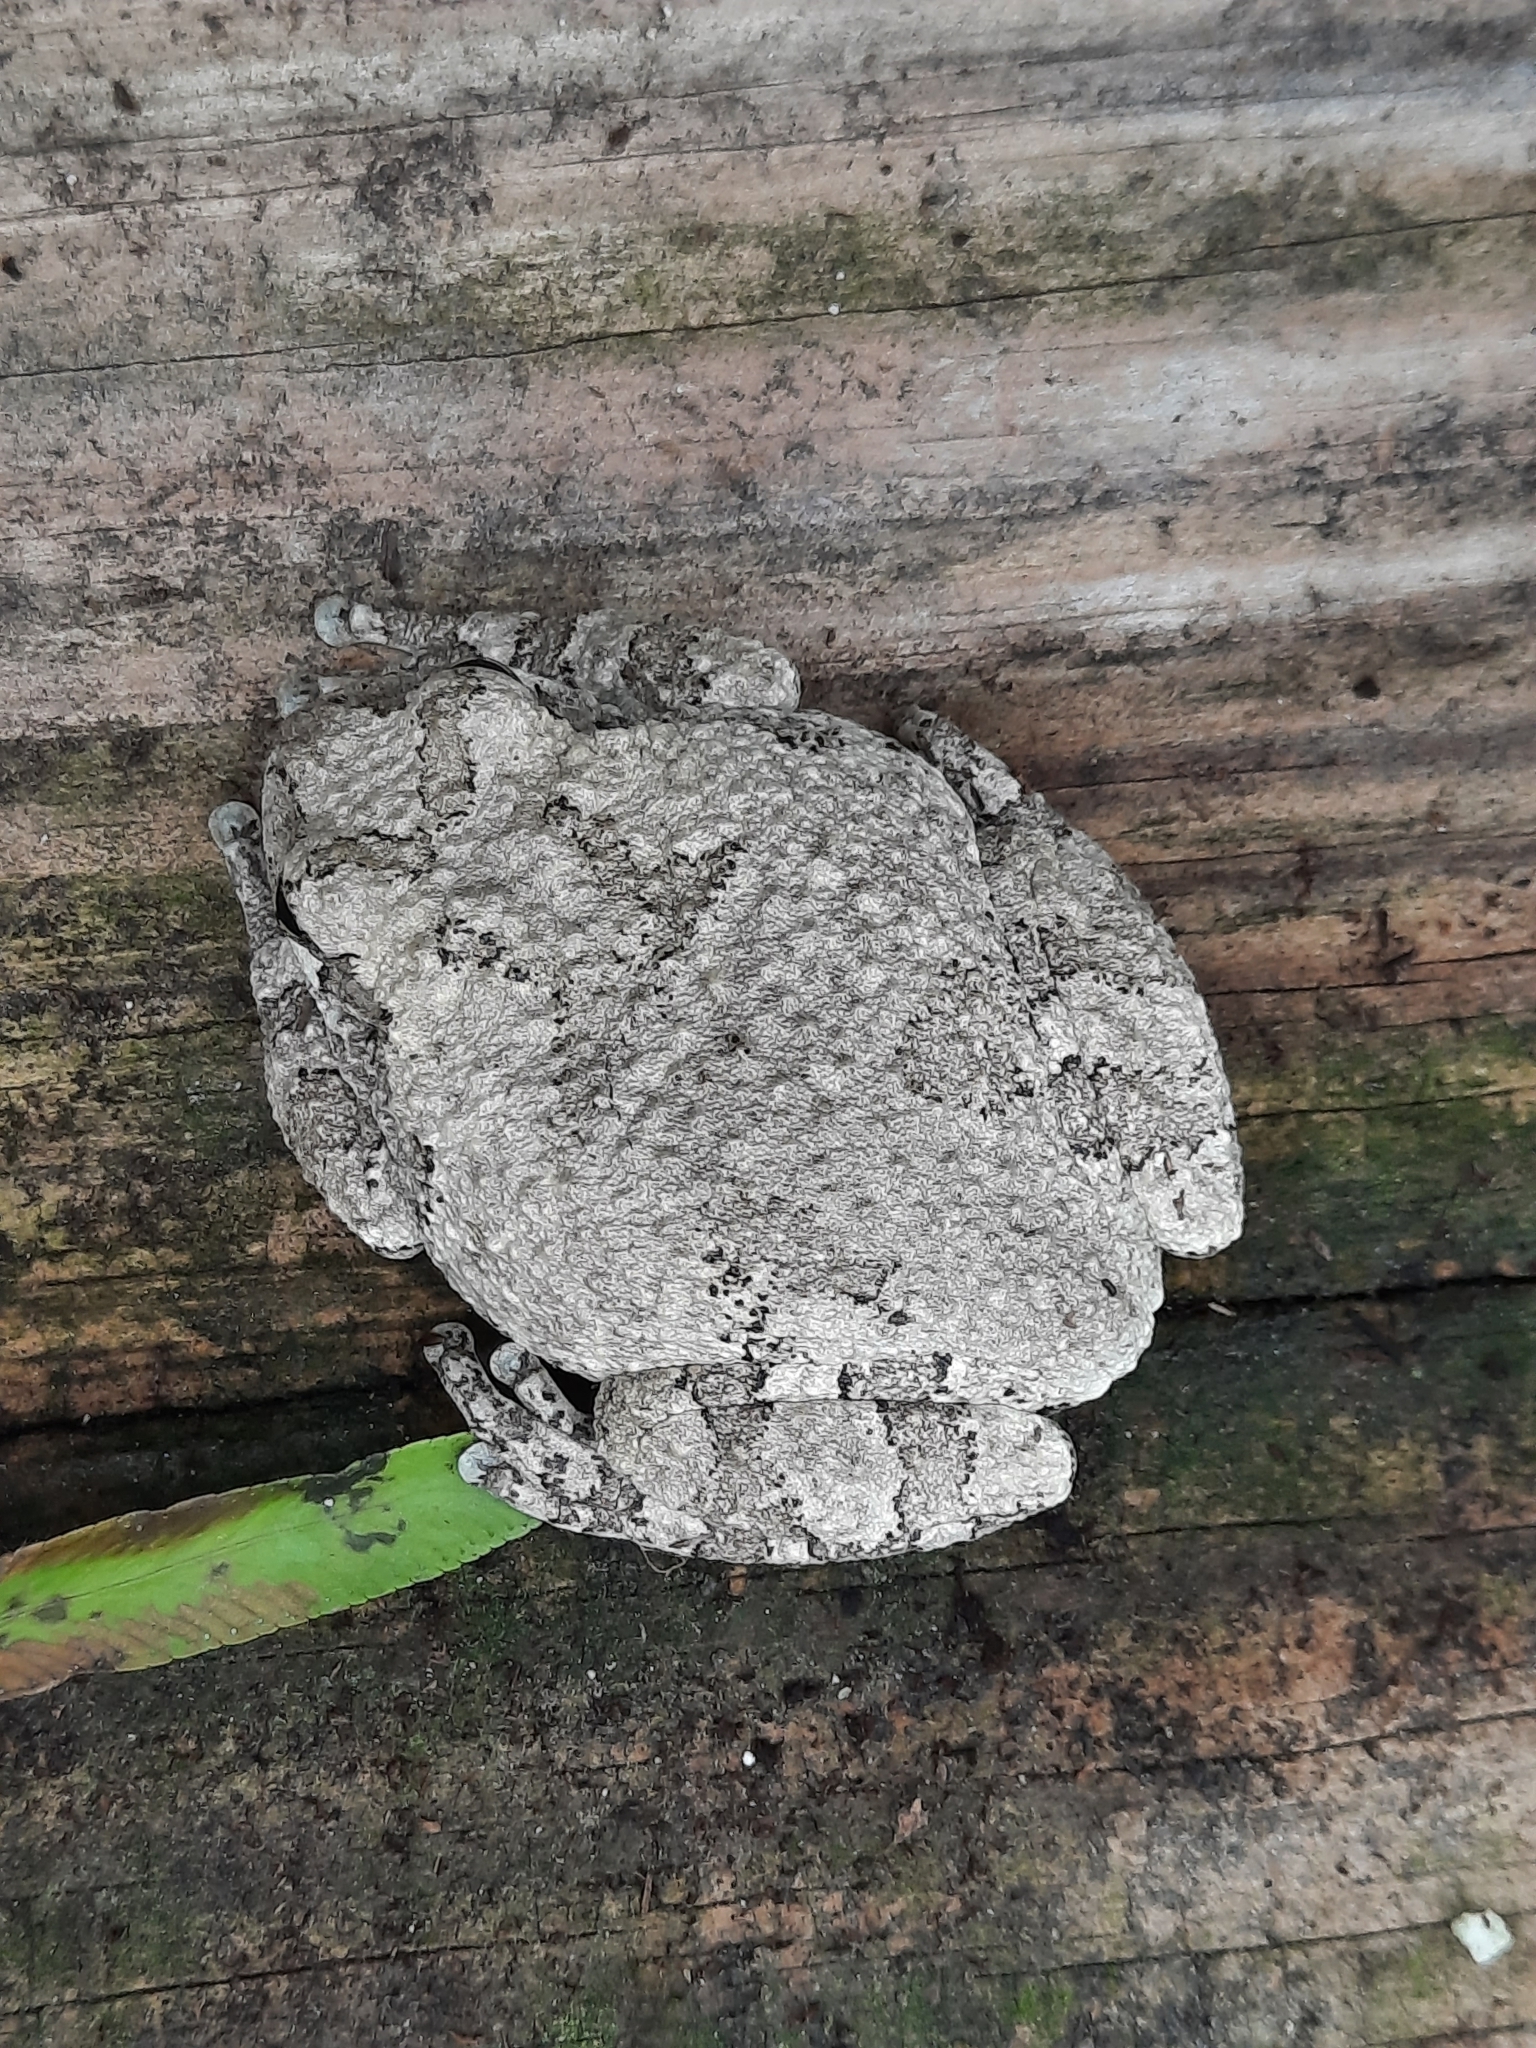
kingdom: Animalia
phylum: Chordata
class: Amphibia
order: Anura
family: Hylidae
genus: Dryophytes
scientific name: Dryophytes versicolor
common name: Gray treefrog
